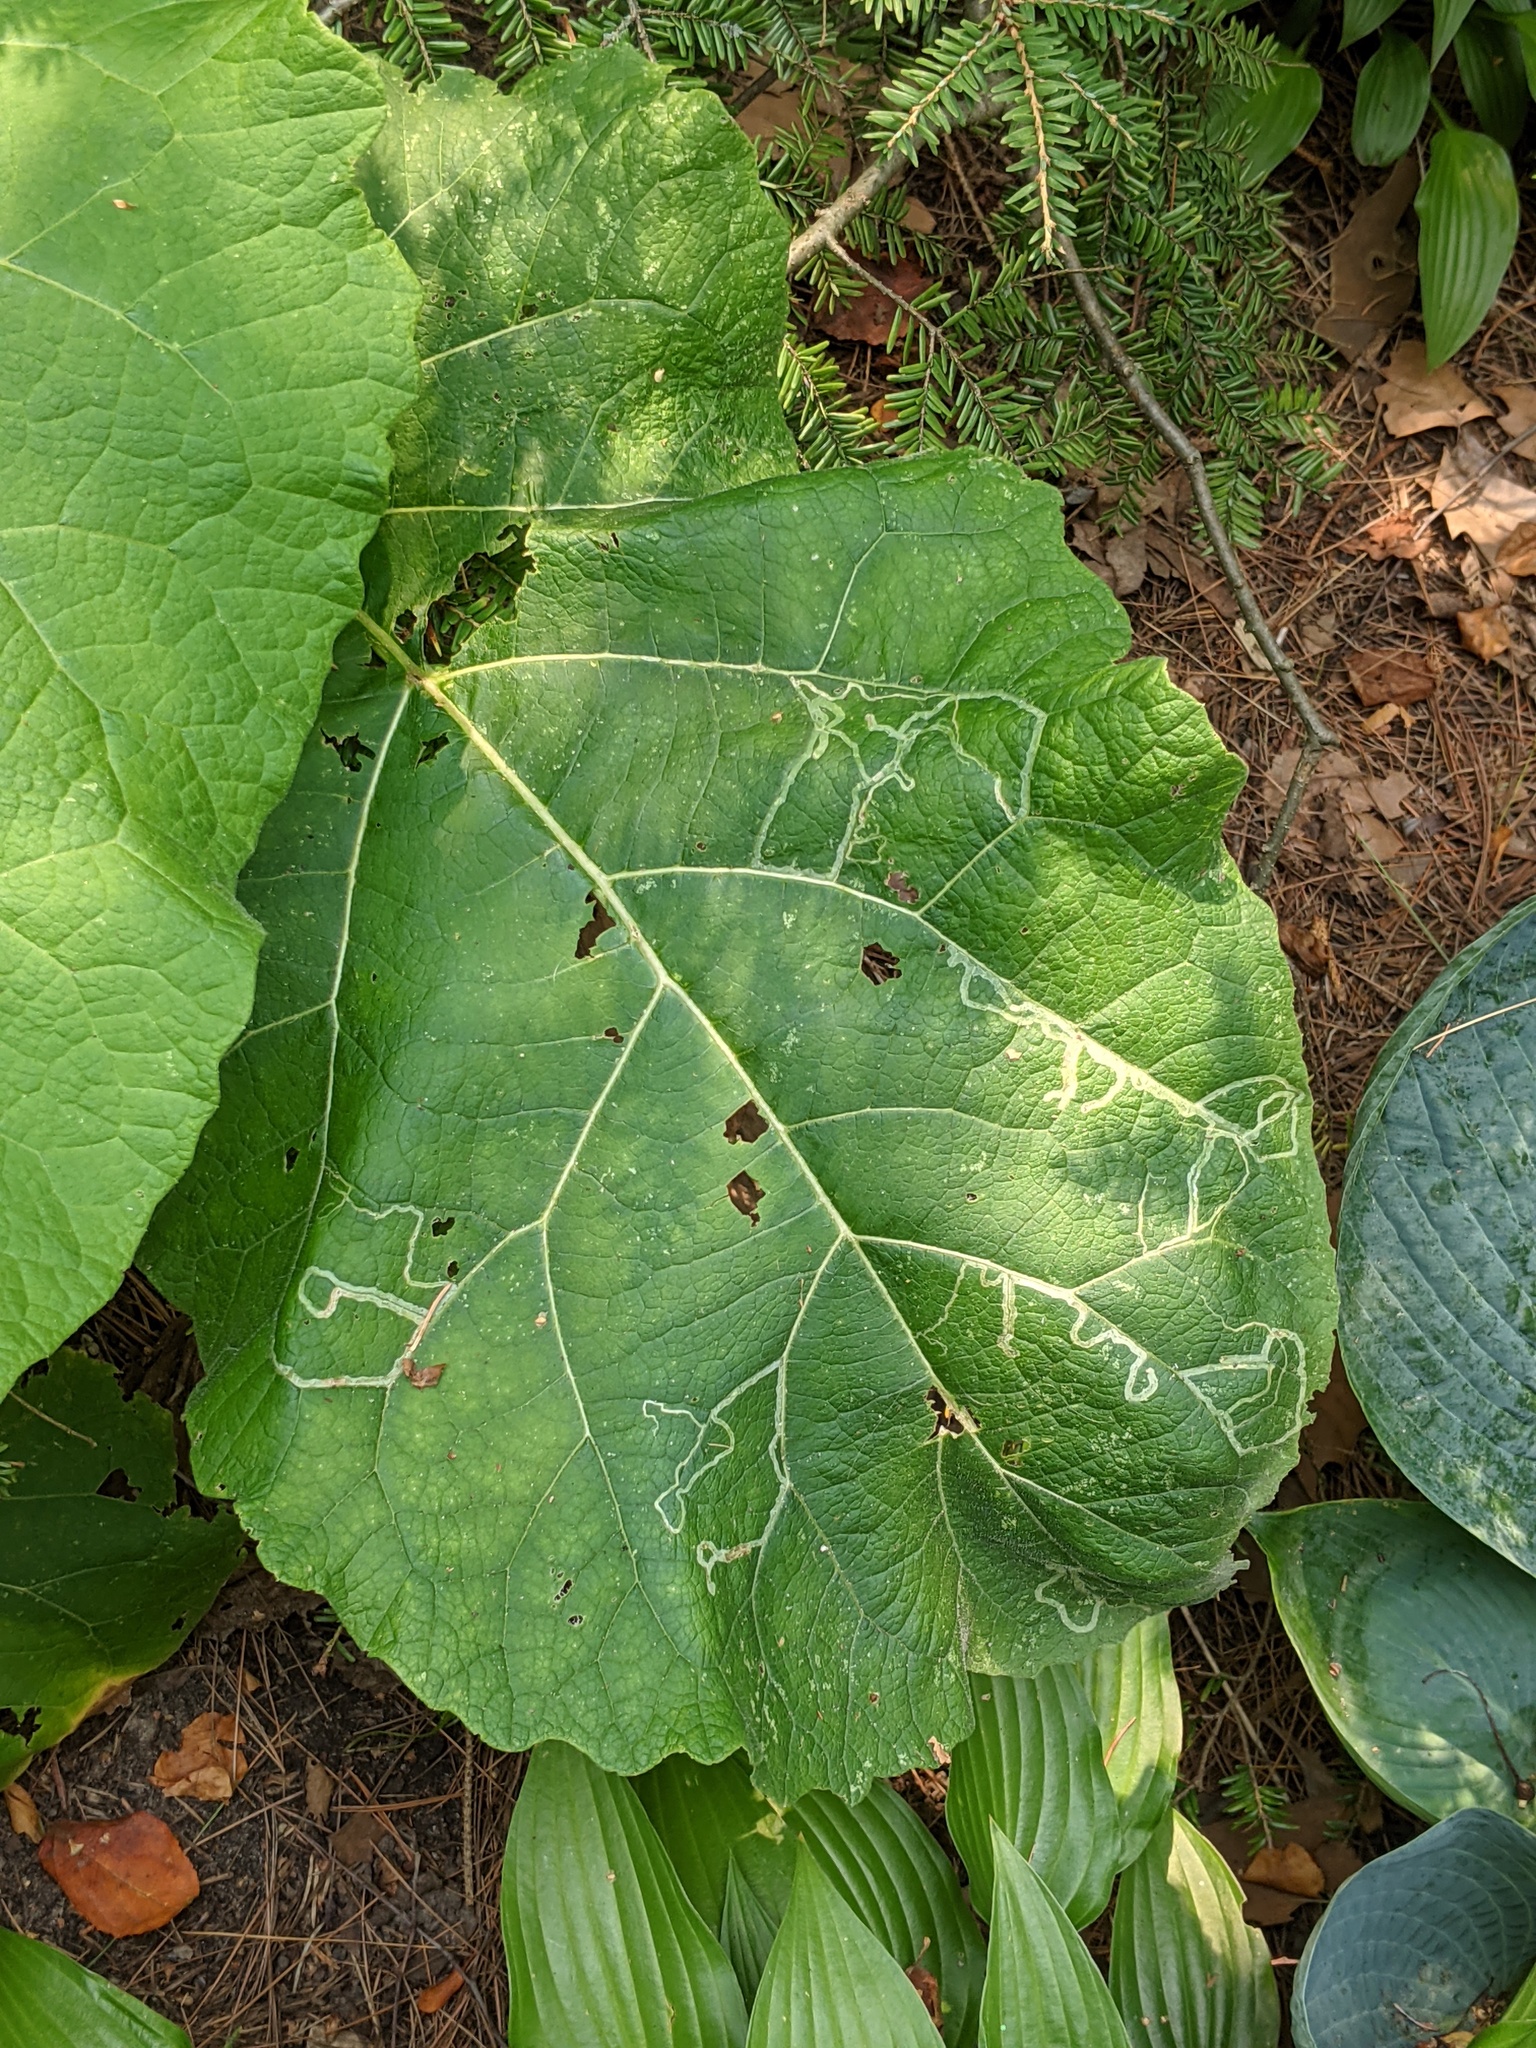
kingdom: Animalia
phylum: Arthropoda
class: Insecta
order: Diptera
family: Agromyzidae
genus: Liriomyza
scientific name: Liriomyza arctii
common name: Burdock leafminer
